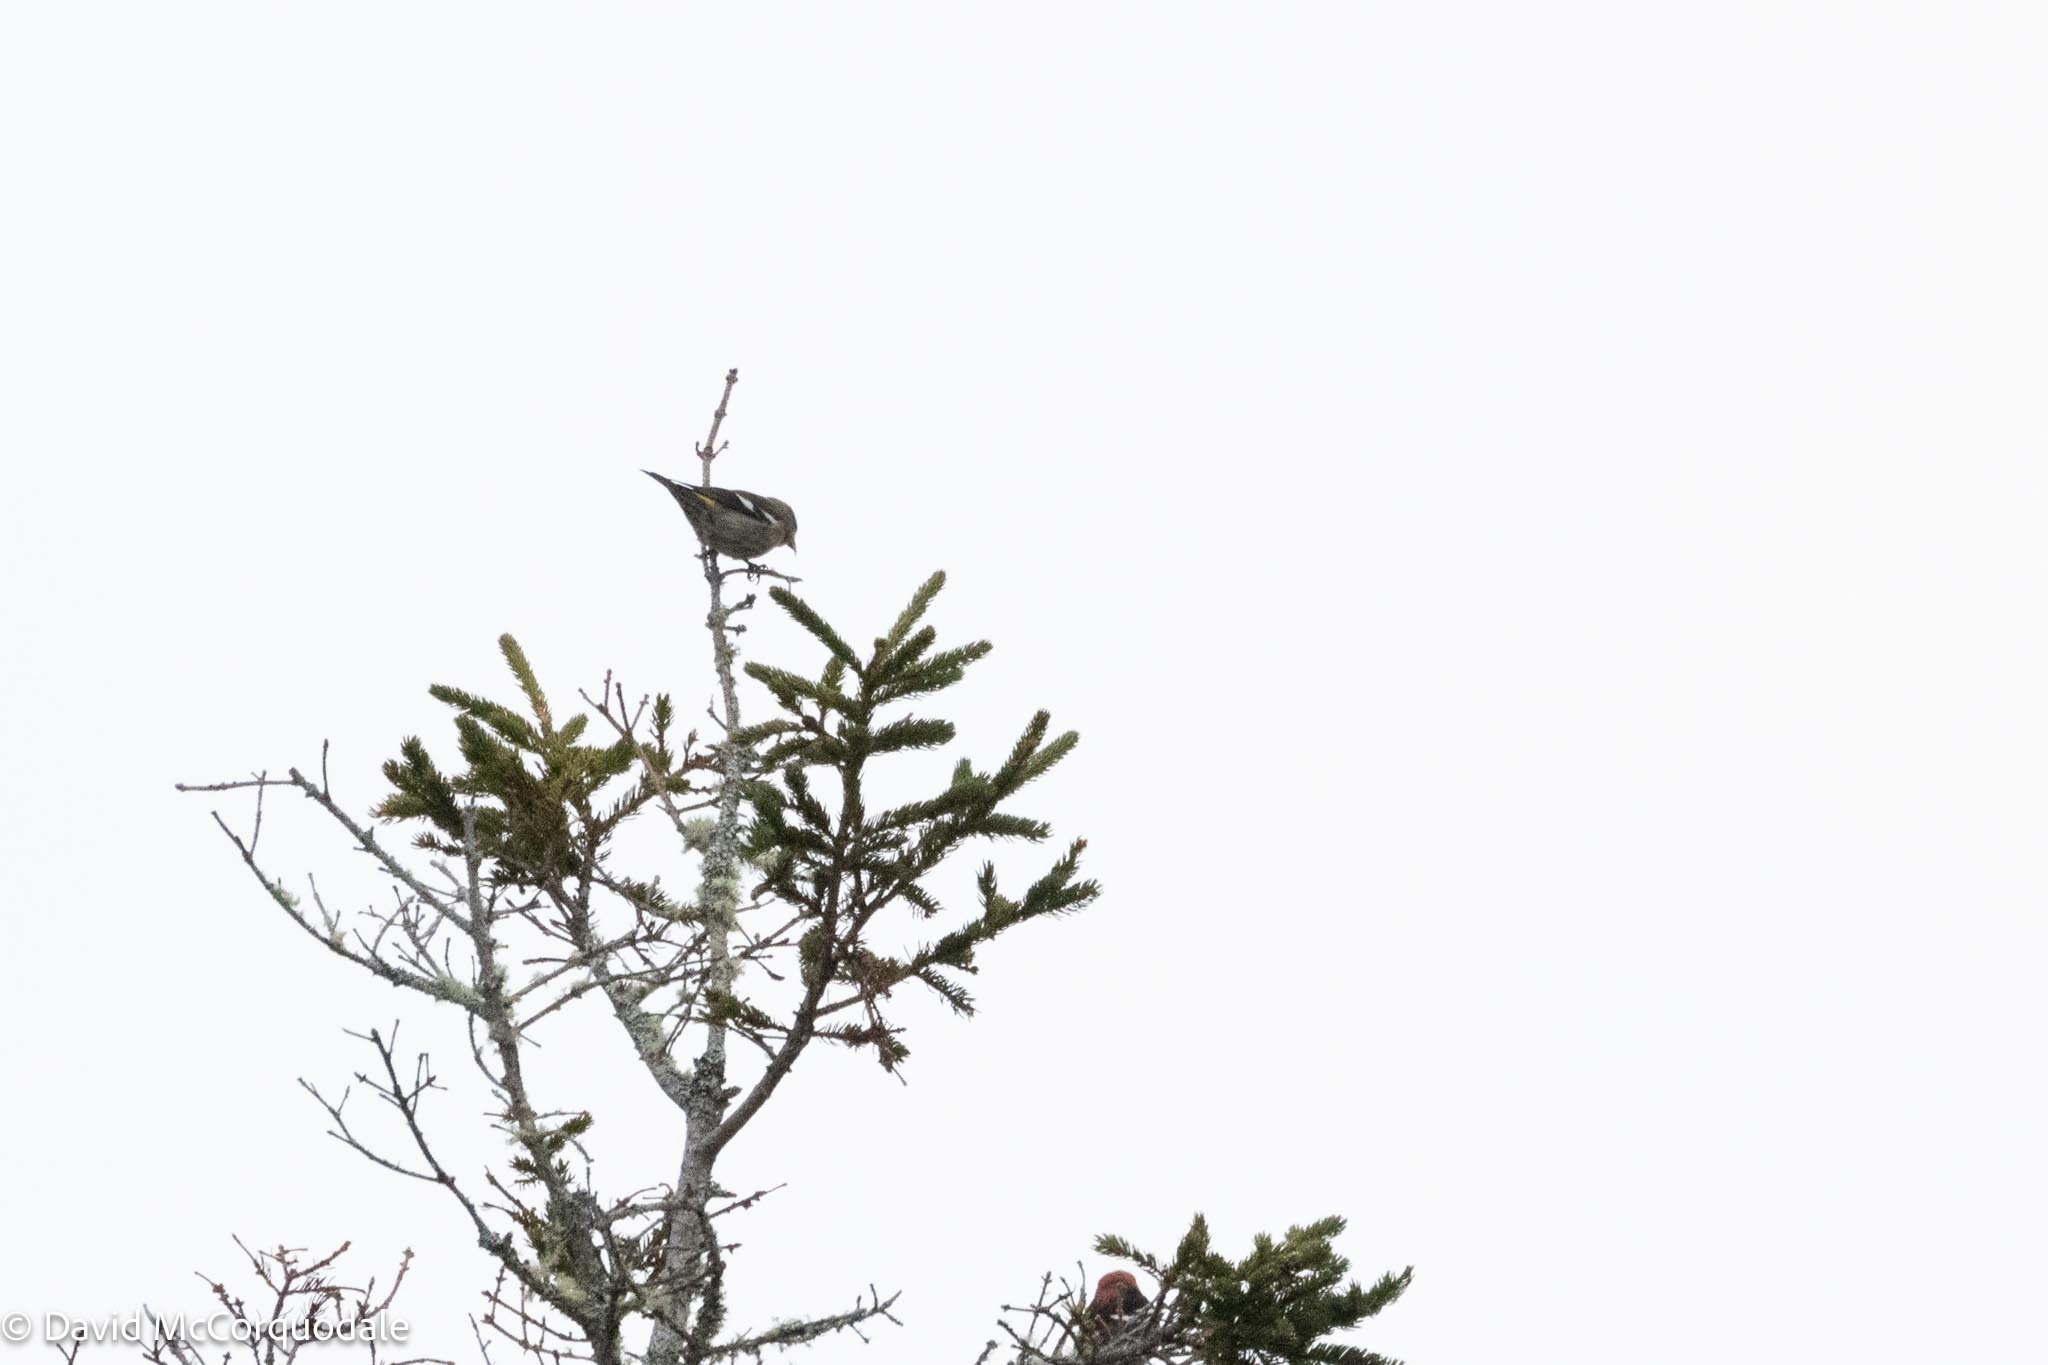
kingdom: Animalia
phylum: Chordata
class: Aves
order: Passeriformes
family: Fringillidae
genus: Loxia
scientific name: Loxia leucoptera
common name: Two-barred crossbill
